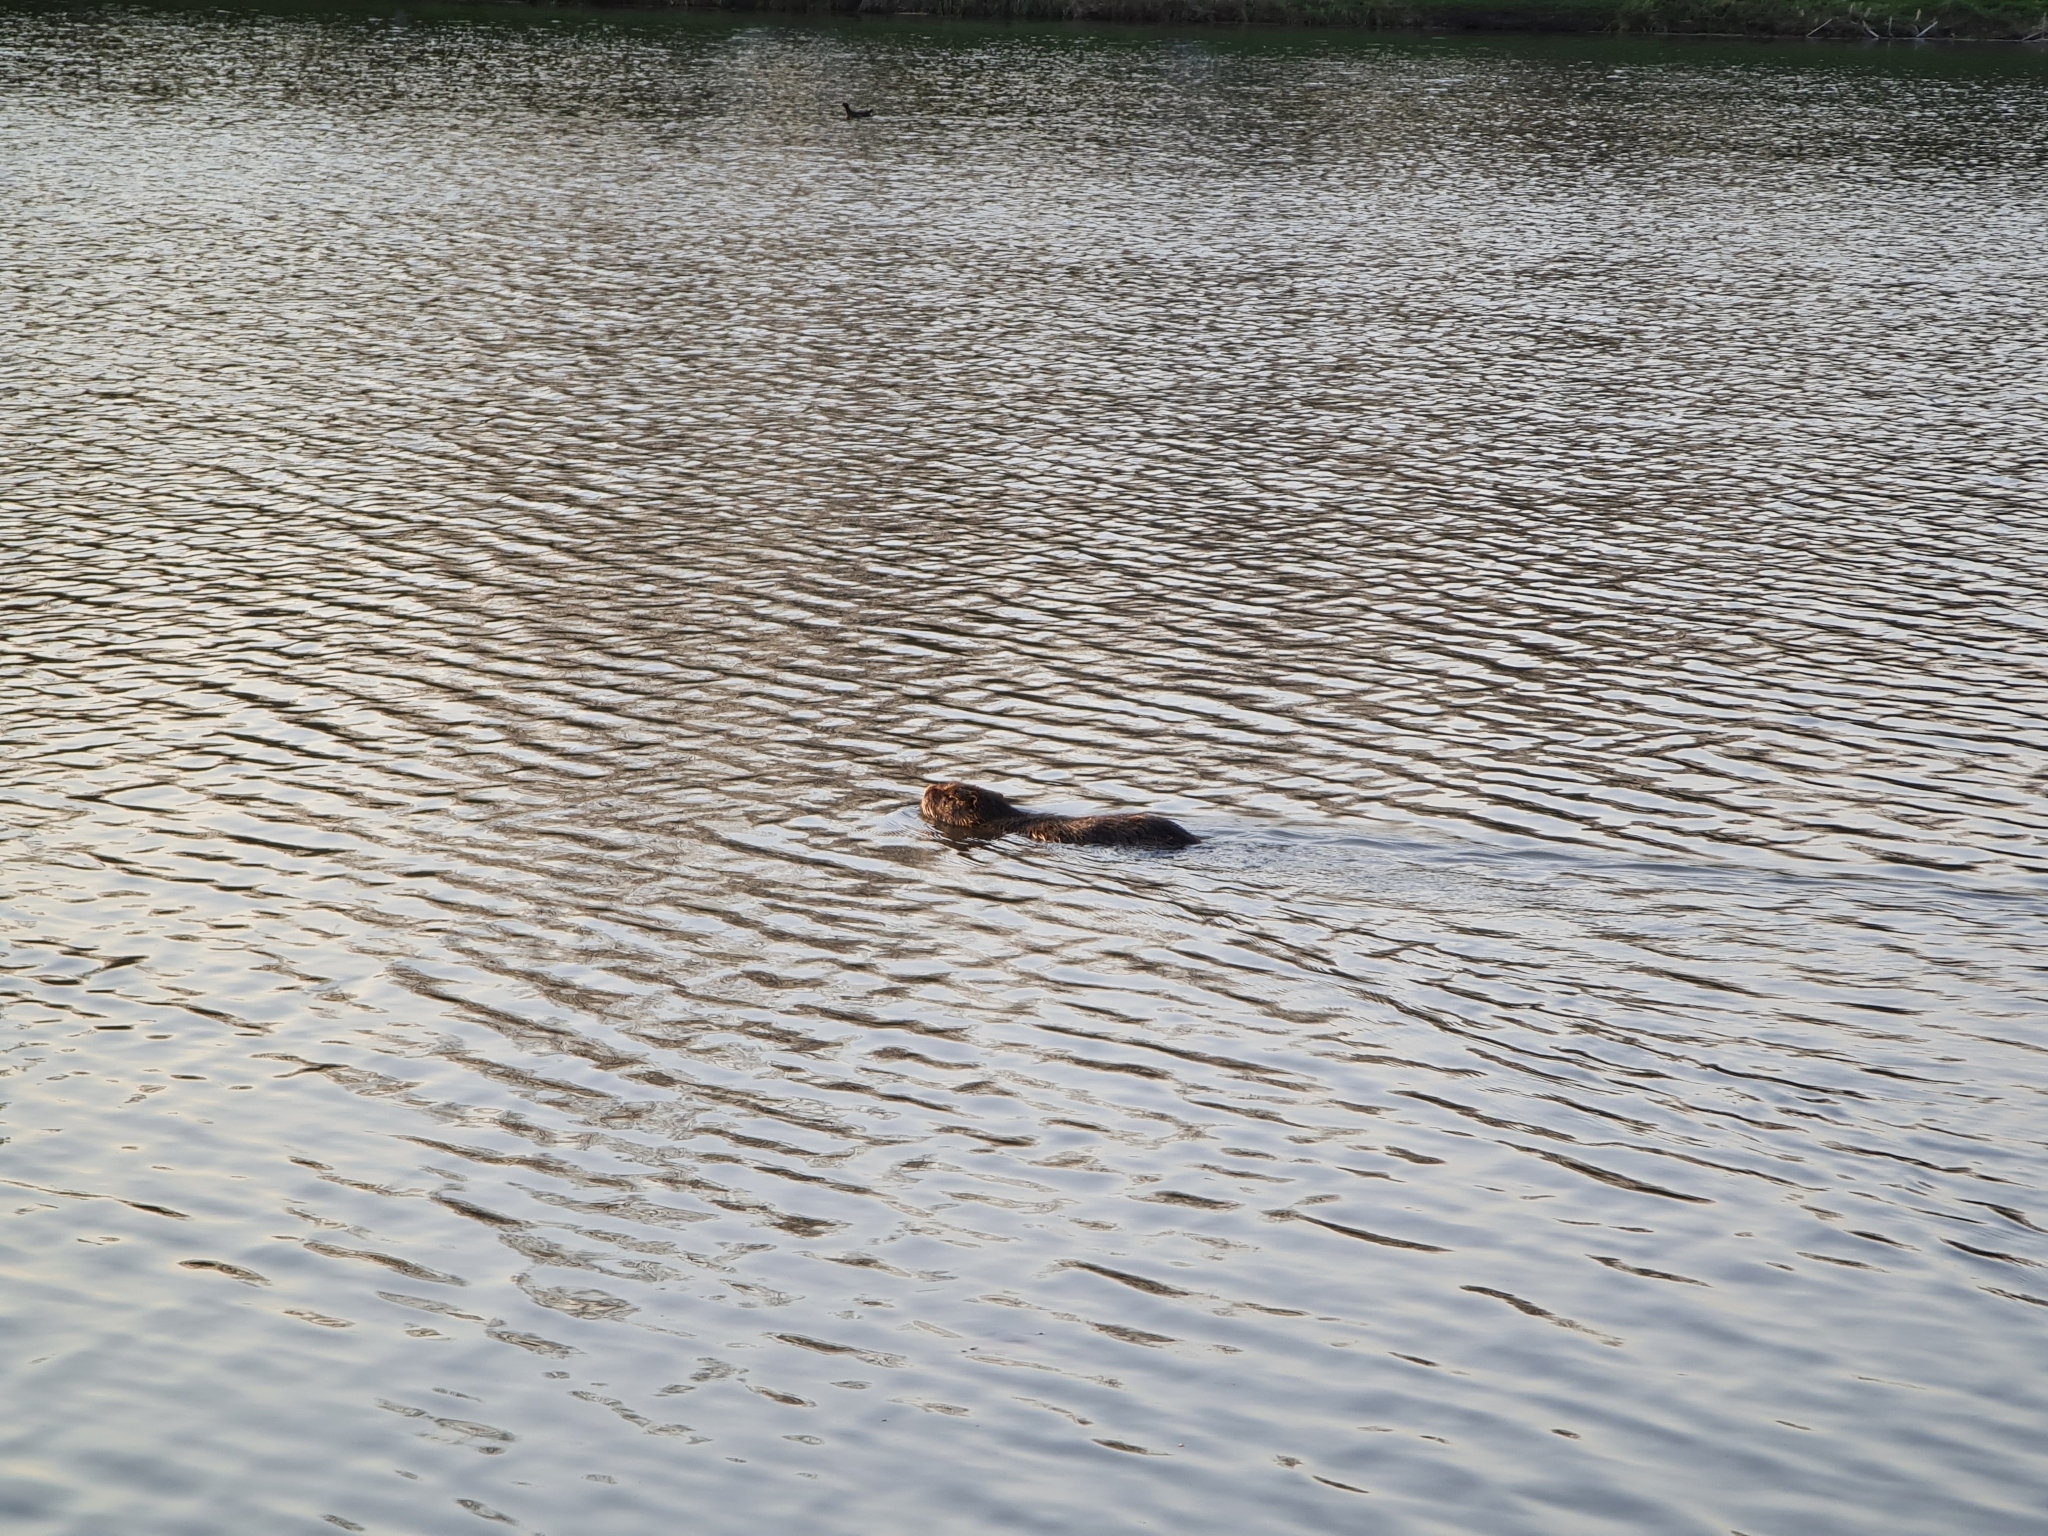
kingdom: Animalia
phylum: Chordata
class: Mammalia
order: Rodentia
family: Myocastoridae
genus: Myocastor
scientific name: Myocastor coypus
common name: Coypu
